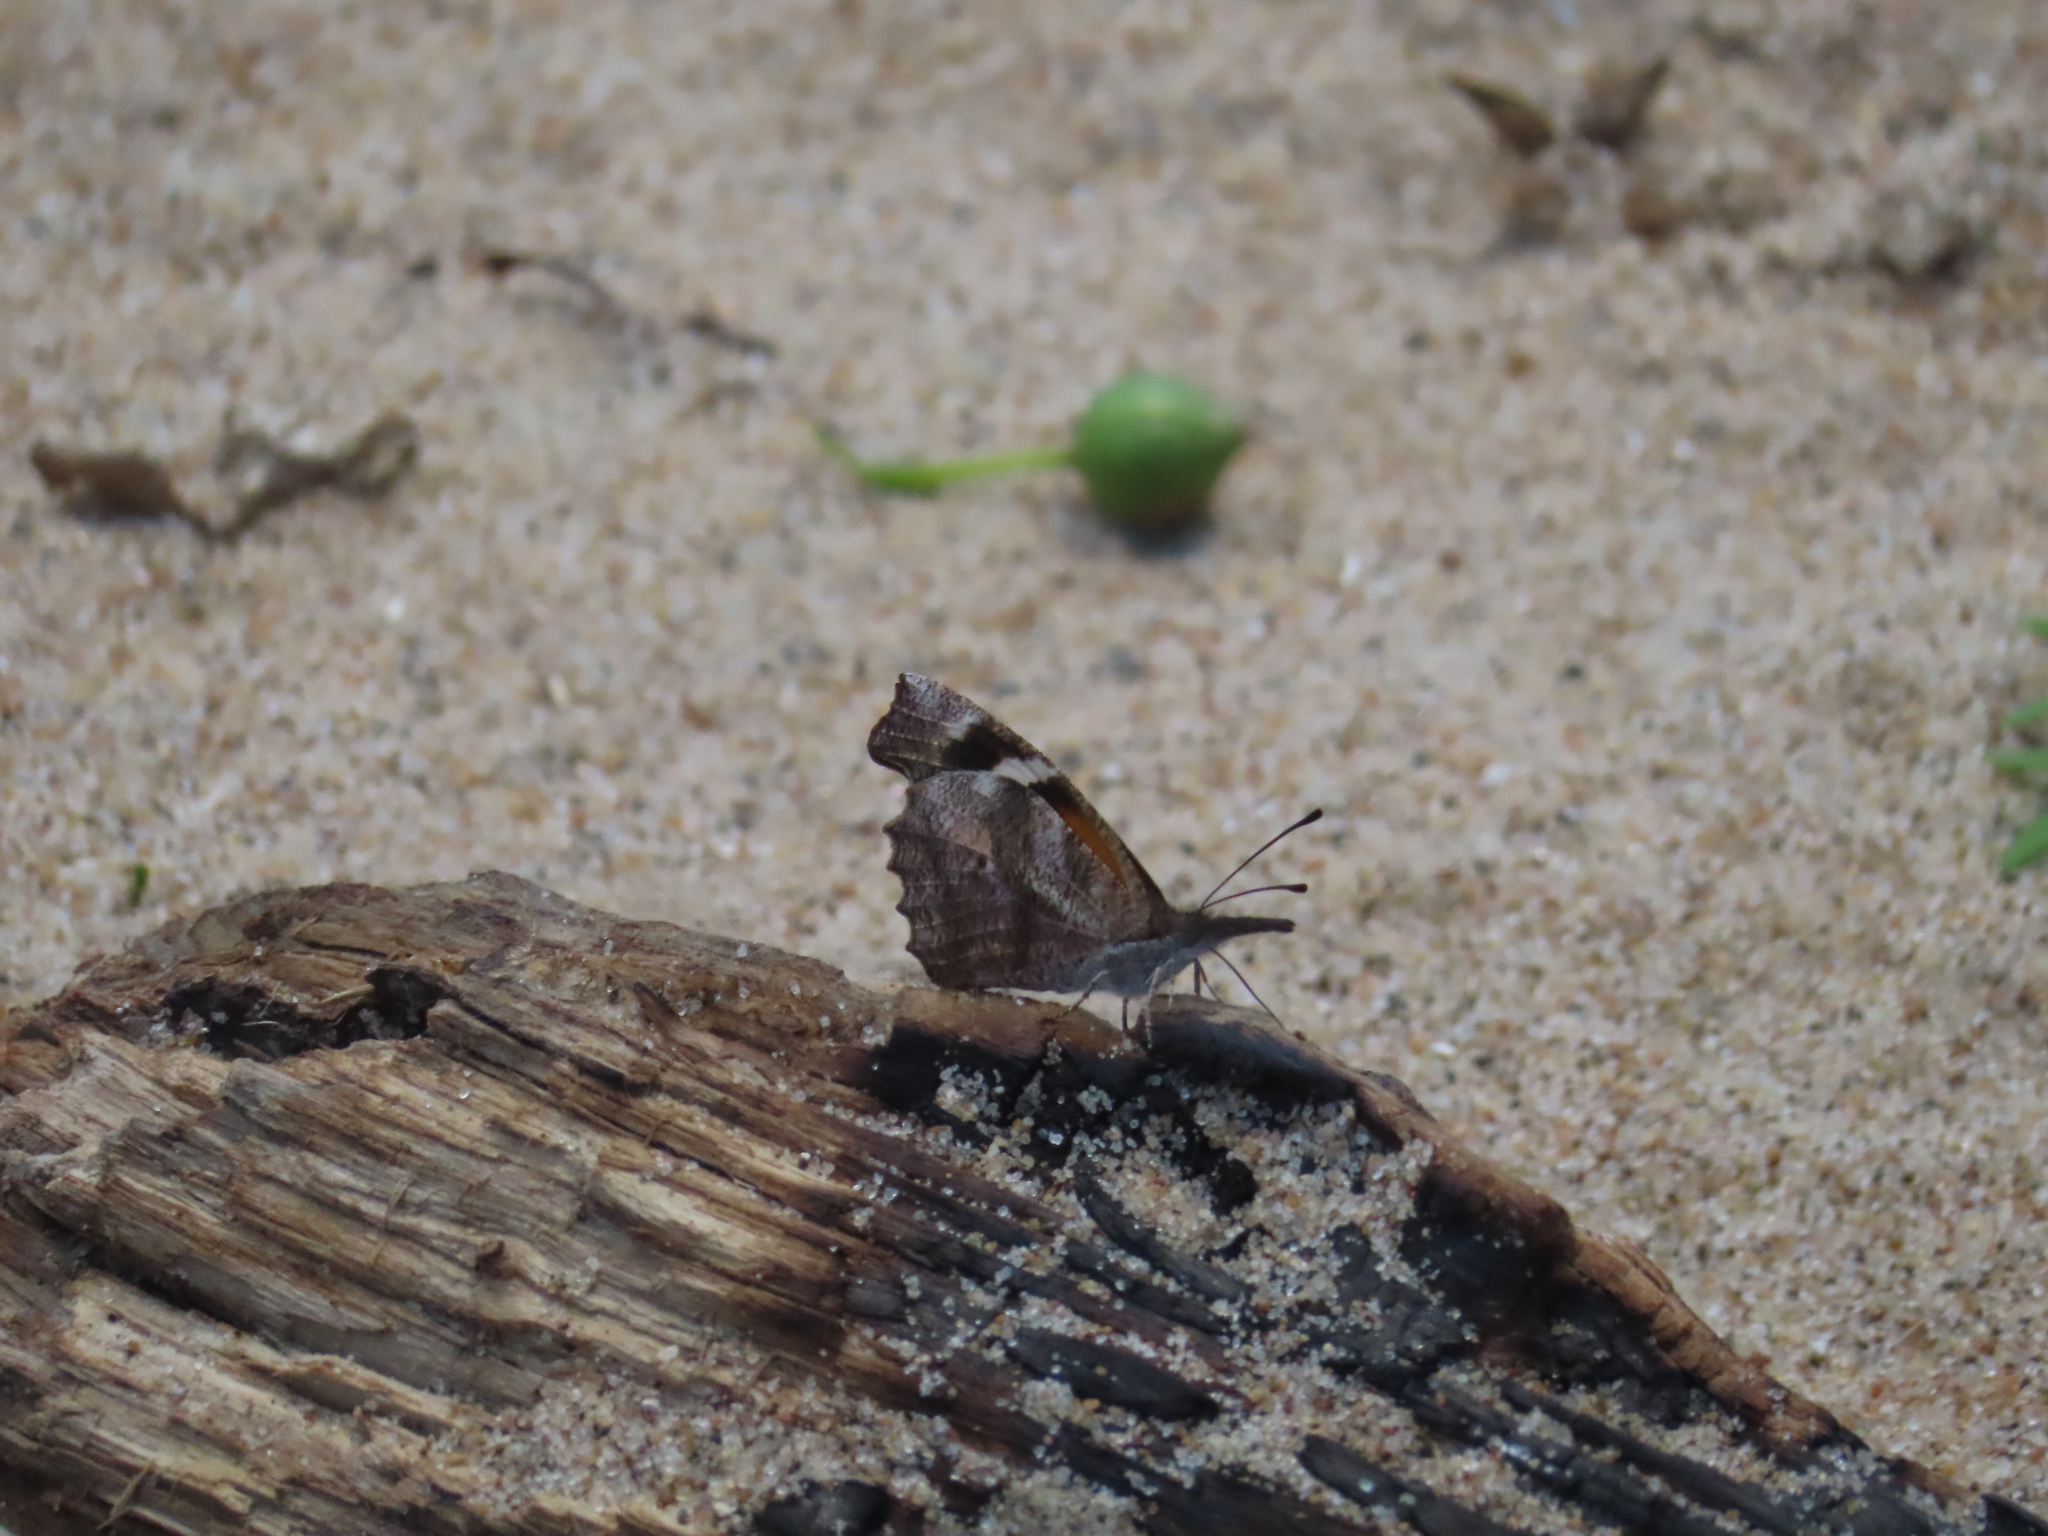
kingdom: Animalia
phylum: Arthropoda
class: Insecta
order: Lepidoptera
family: Nymphalidae
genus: Libytheana
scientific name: Libytheana carinenta
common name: American snout
